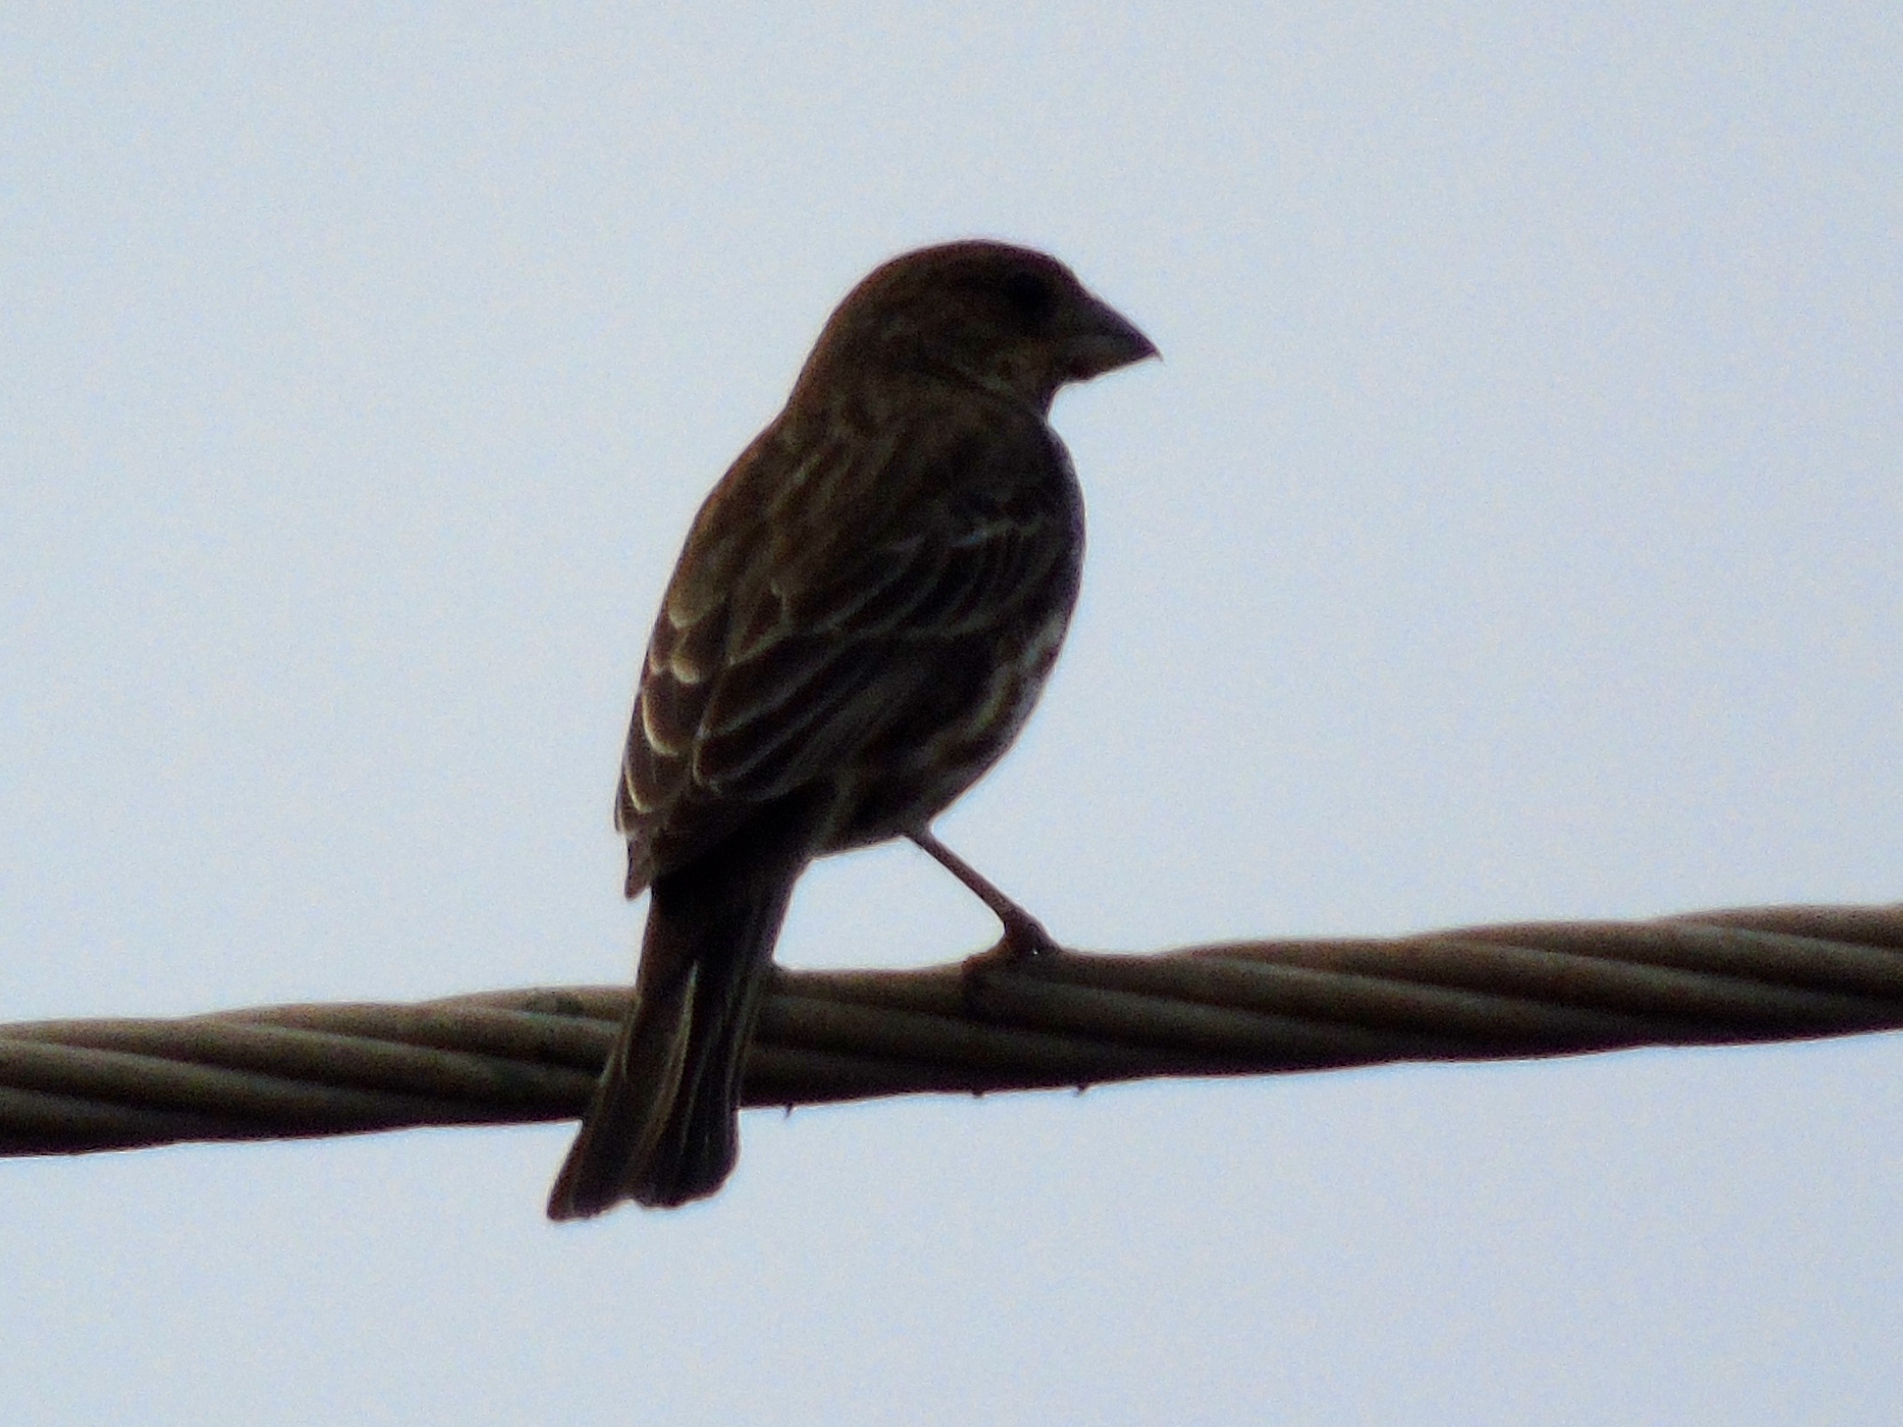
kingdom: Animalia
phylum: Chordata
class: Aves
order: Passeriformes
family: Fringillidae
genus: Haemorhous
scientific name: Haemorhous mexicanus
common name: House finch
